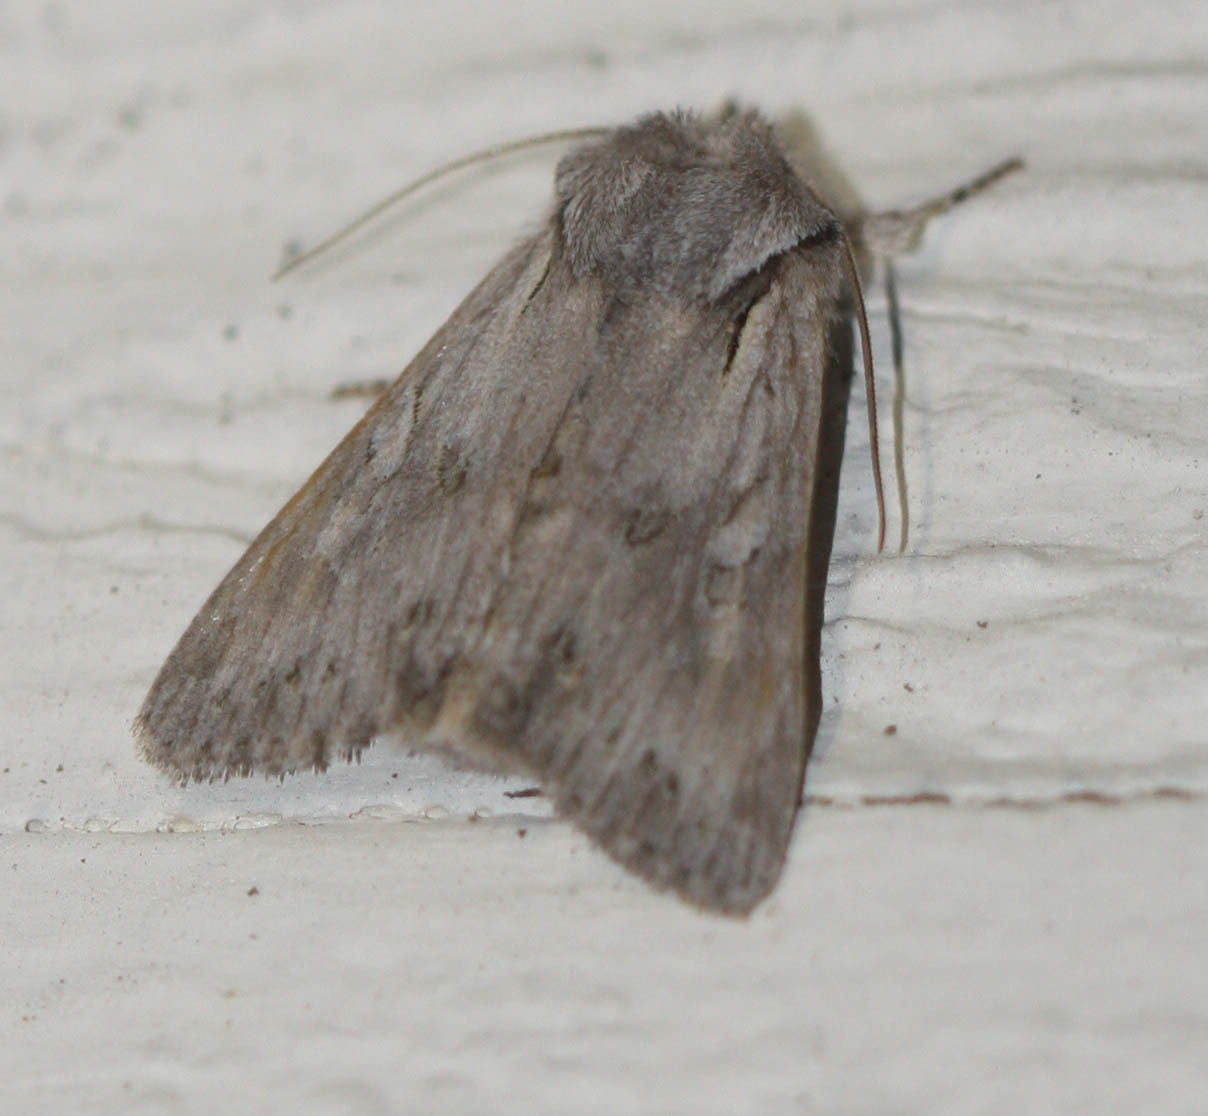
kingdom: Animalia
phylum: Arthropoda
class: Insecta
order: Lepidoptera
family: Noctuidae
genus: Lacinipolia
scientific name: Lacinipolia patalis
